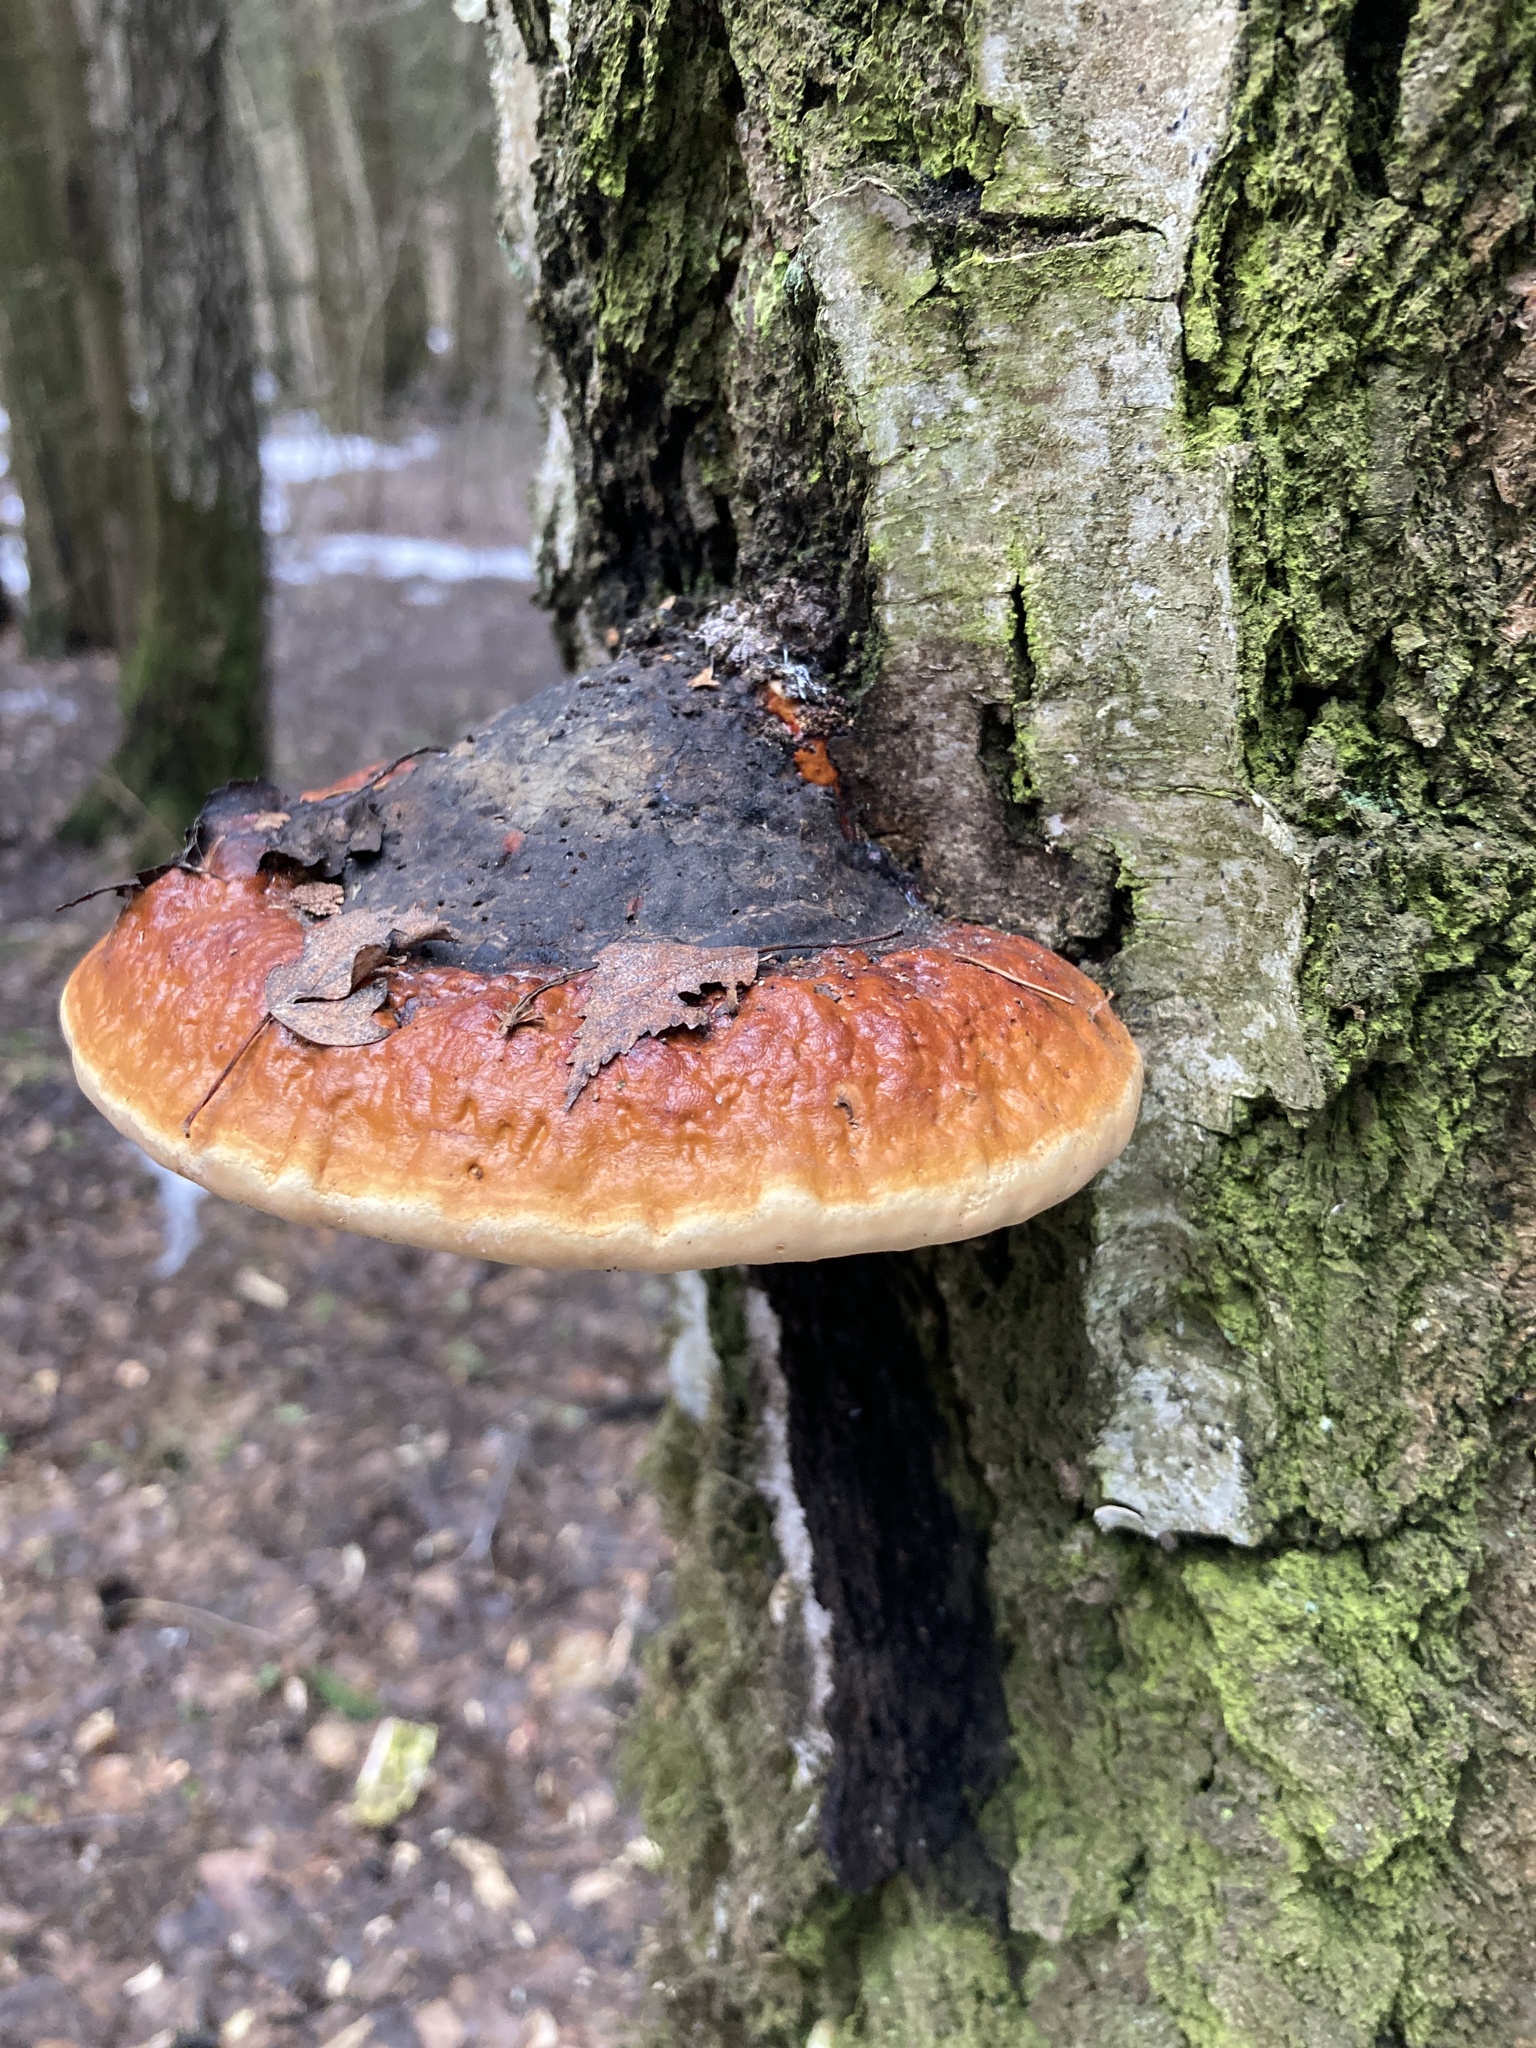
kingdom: Fungi
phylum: Basidiomycota
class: Agaricomycetes
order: Polyporales
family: Fomitopsidaceae
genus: Fomitopsis
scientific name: Fomitopsis pinicola
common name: Red-belted bracket
